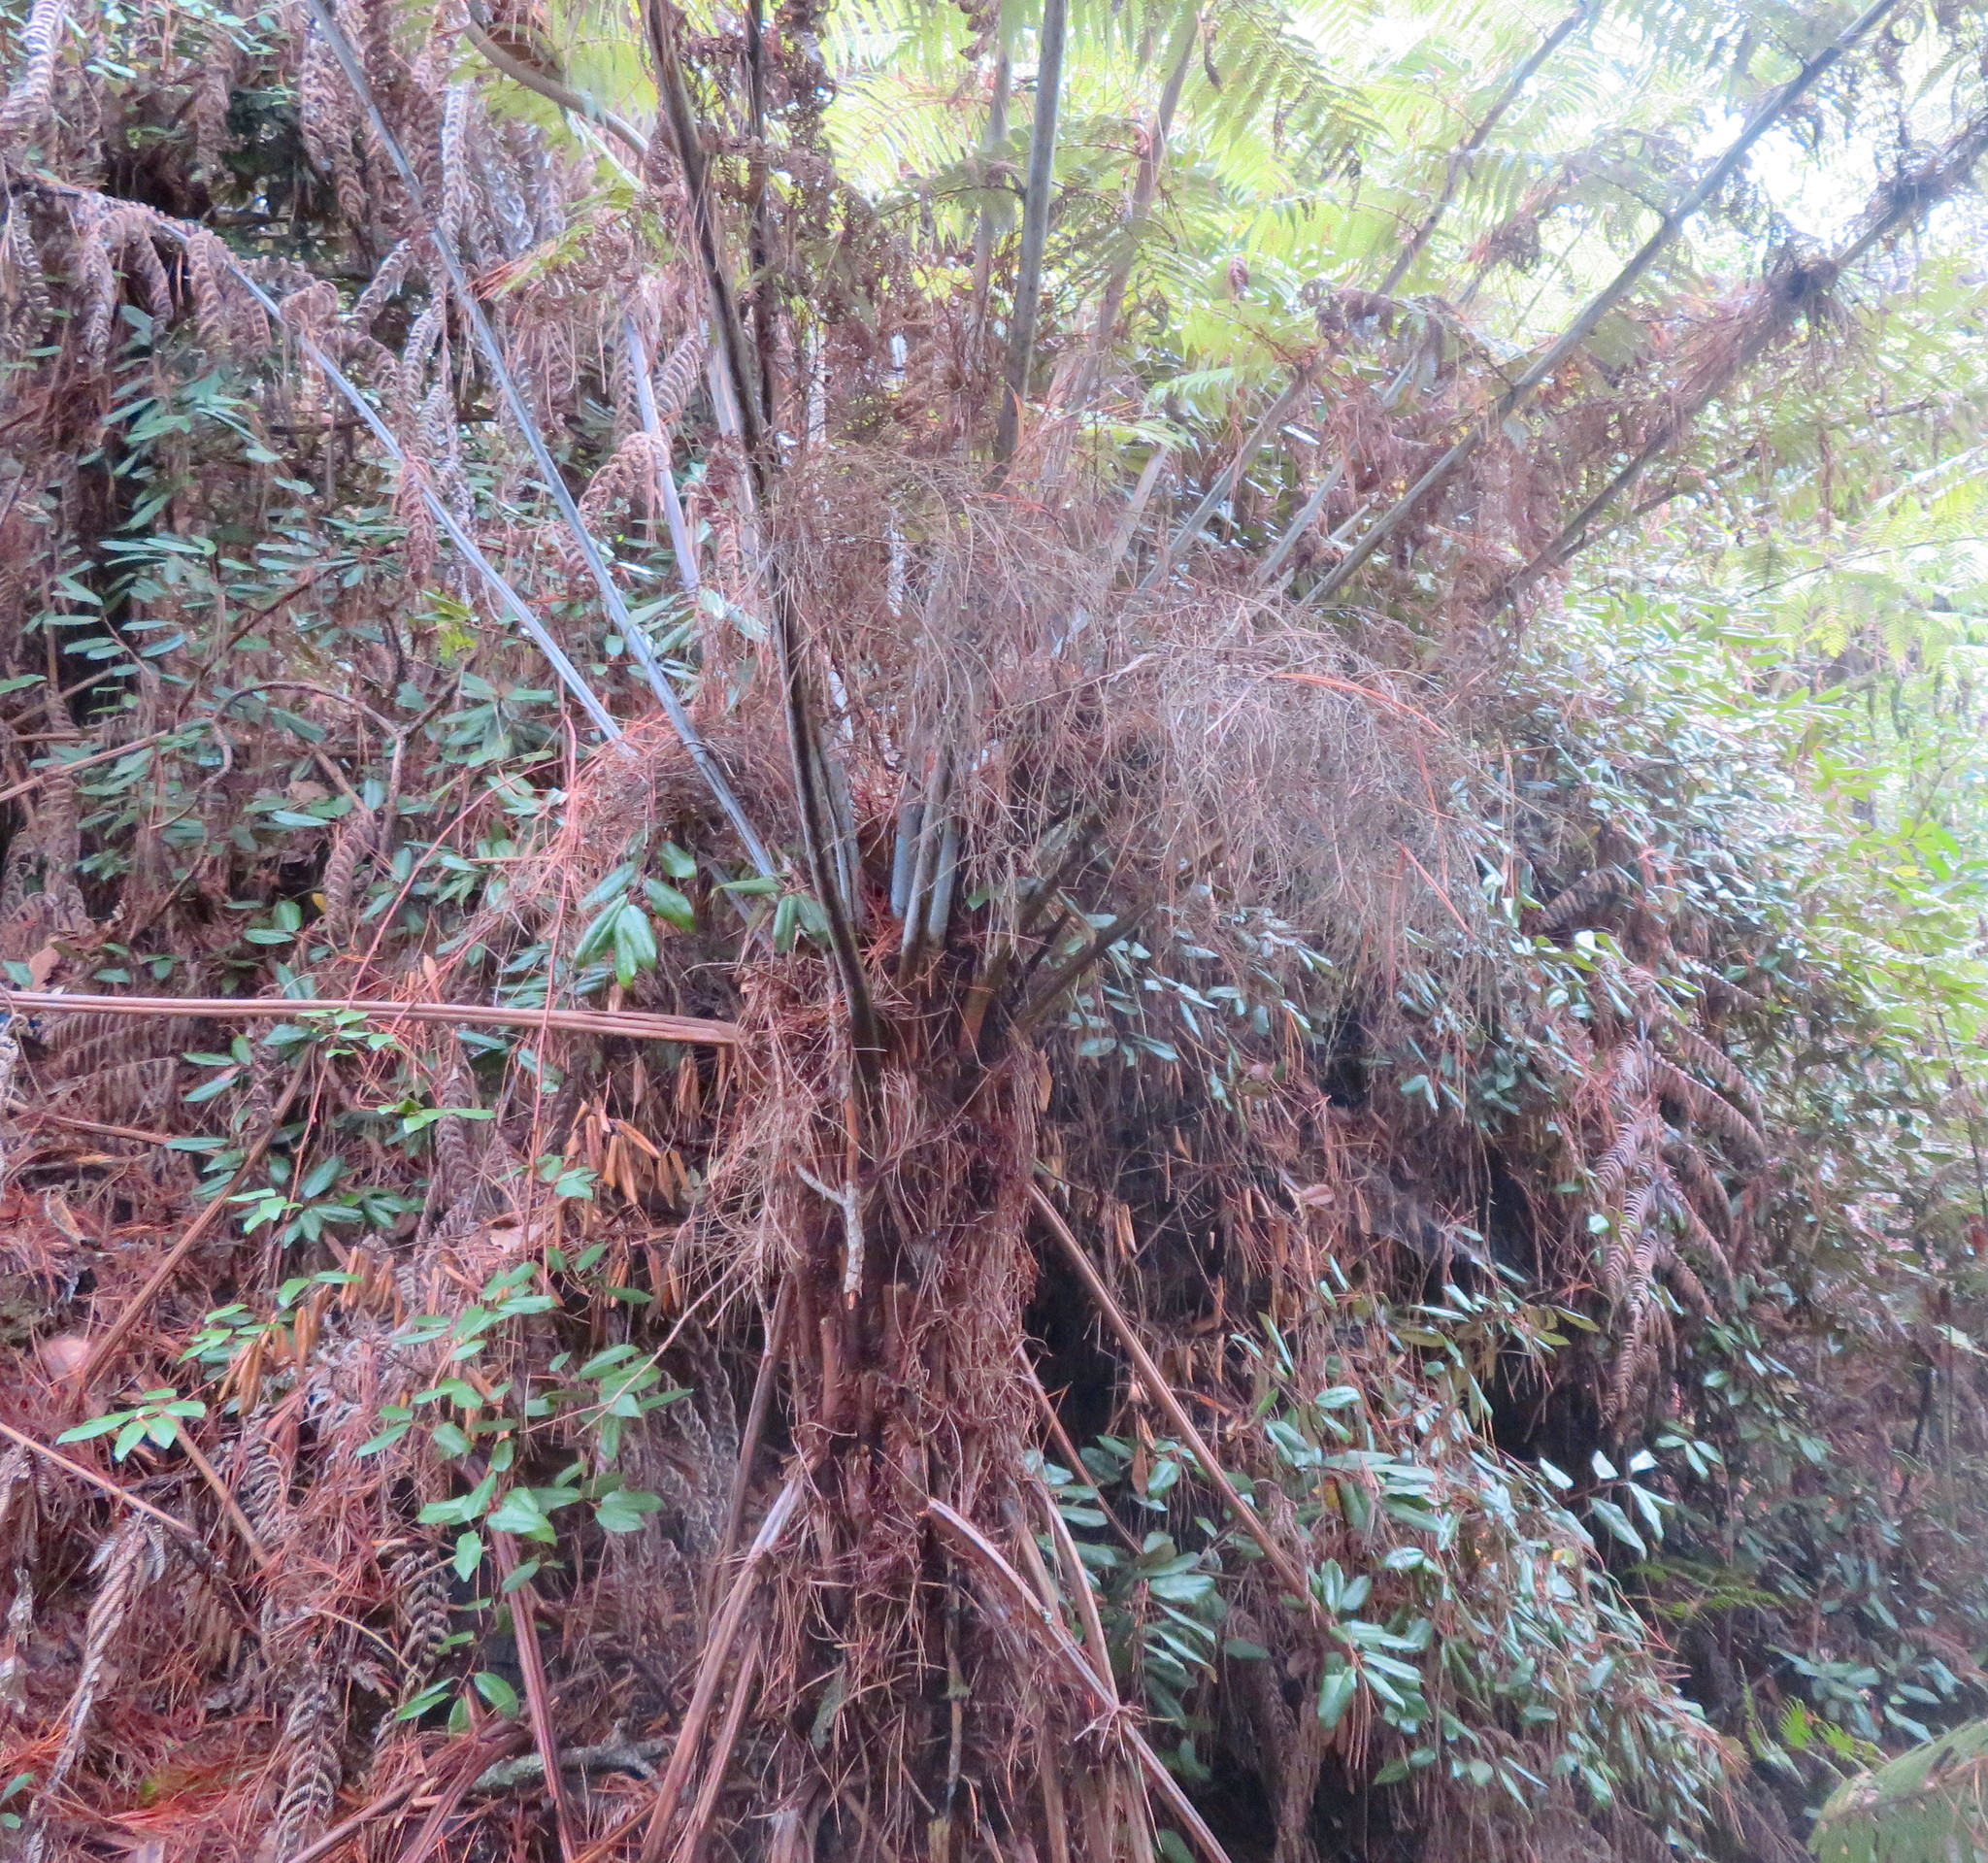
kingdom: Plantae
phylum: Tracheophyta
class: Magnoliopsida
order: Rosales
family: Elaeagnaceae
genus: Elaeagnus
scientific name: Elaeagnus reflexa
